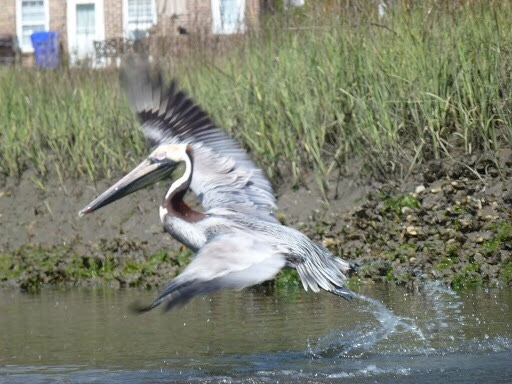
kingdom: Animalia
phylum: Chordata
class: Aves
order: Pelecaniformes
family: Pelecanidae
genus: Pelecanus
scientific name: Pelecanus occidentalis
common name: Brown pelican
